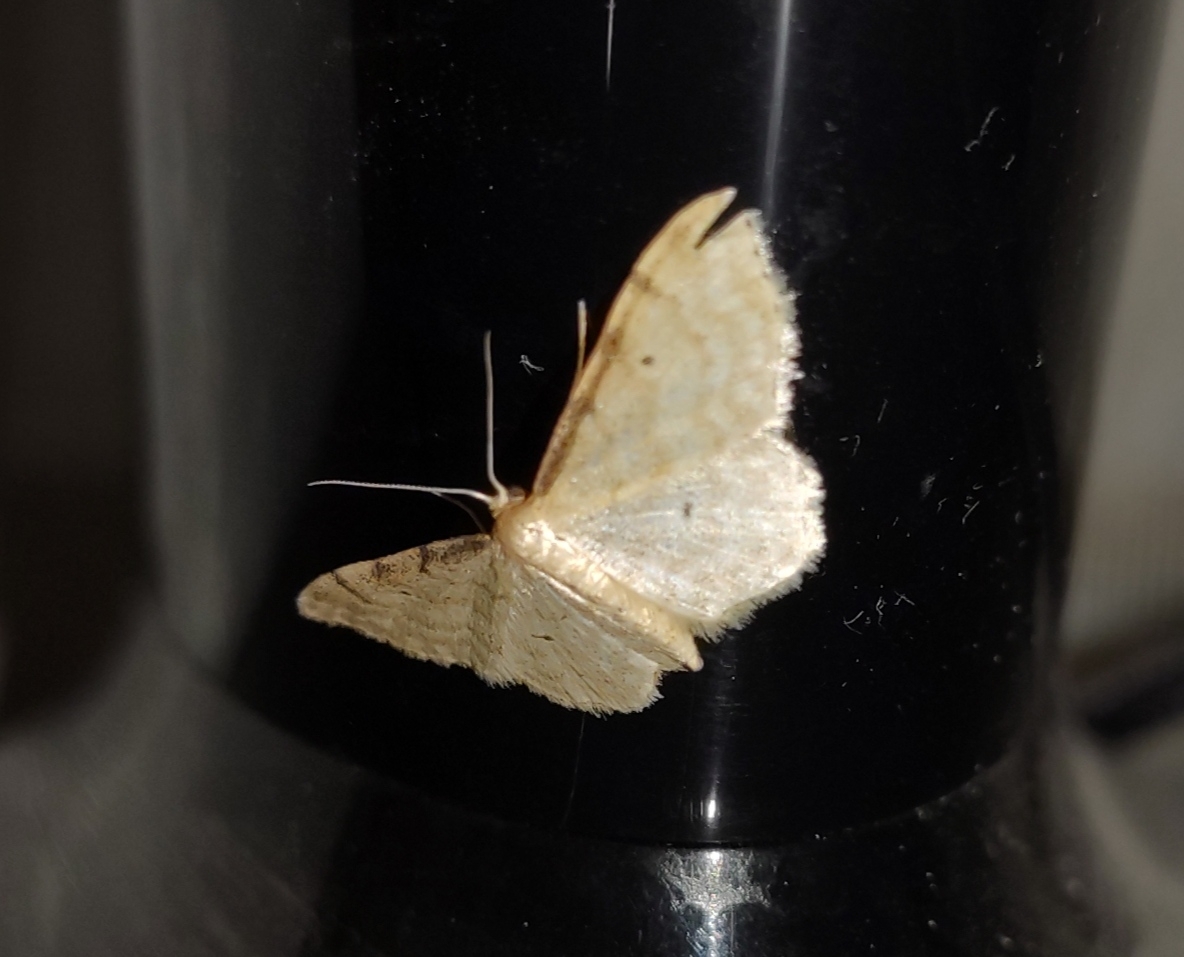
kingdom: Animalia
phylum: Arthropoda
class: Insecta
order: Lepidoptera
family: Geometridae
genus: Idaea
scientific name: Idaea fuscovenosa
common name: Dwarf cream wave
